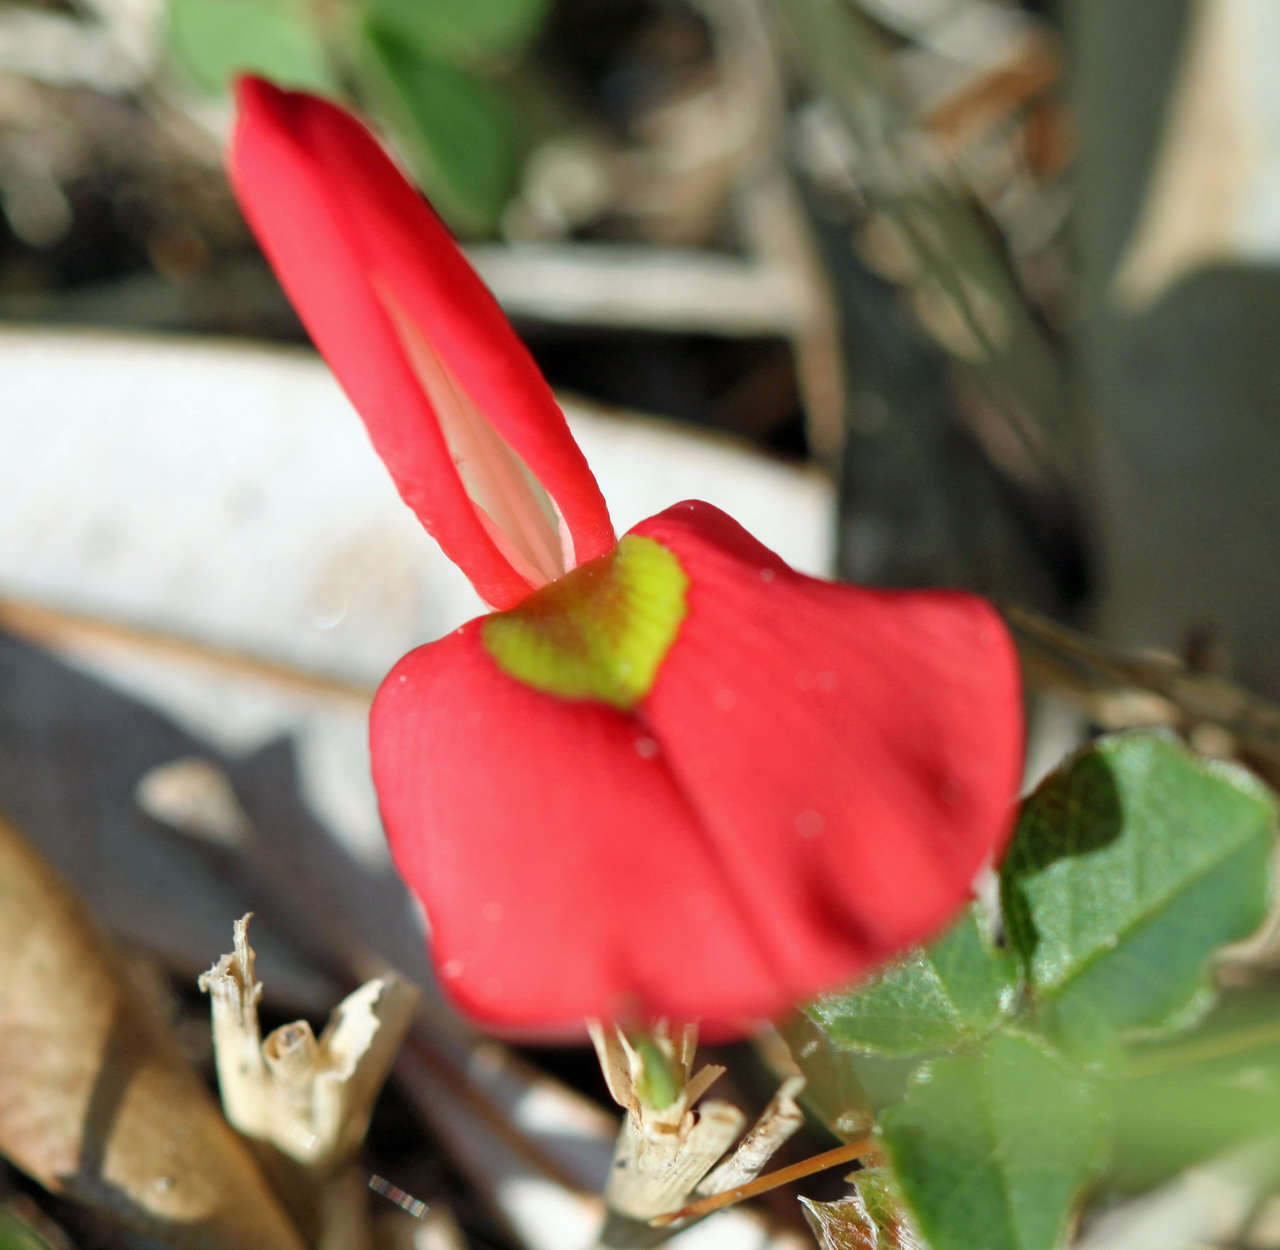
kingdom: Plantae
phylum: Tracheophyta
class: Magnoliopsida
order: Fabales
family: Fabaceae
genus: Kennedia
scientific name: Kennedia prostrata
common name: Running-postman
